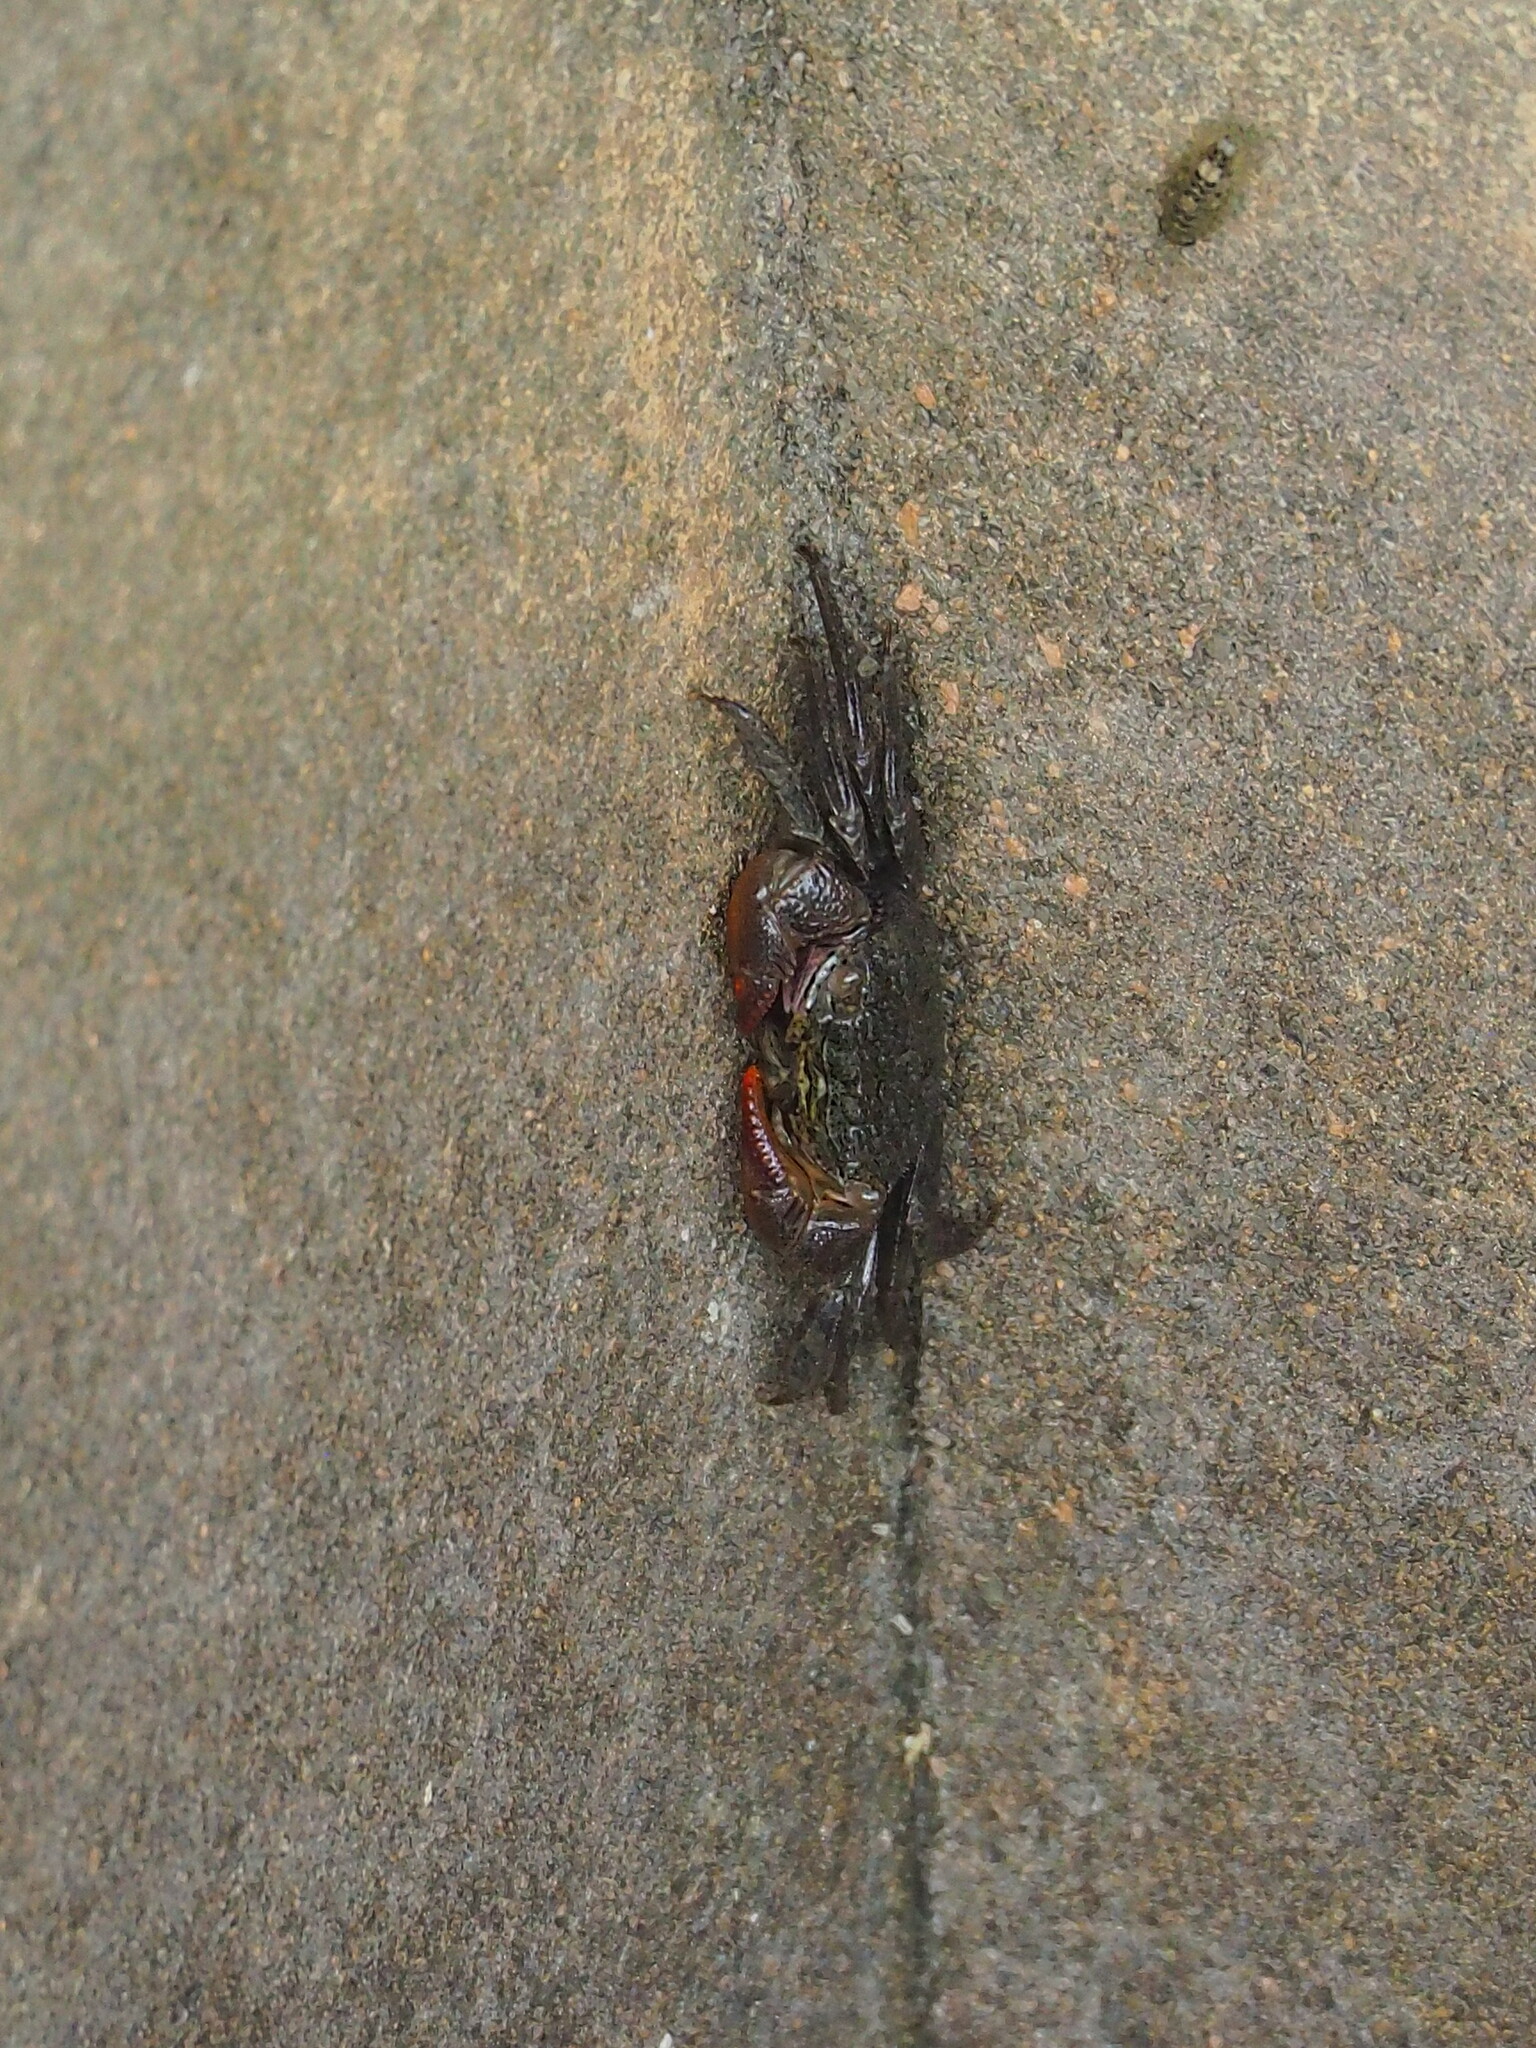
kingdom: Animalia
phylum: Arthropoda
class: Malacostraca
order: Decapoda
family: Sesarmidae
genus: Parasesarma
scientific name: Parasesarma insulare
